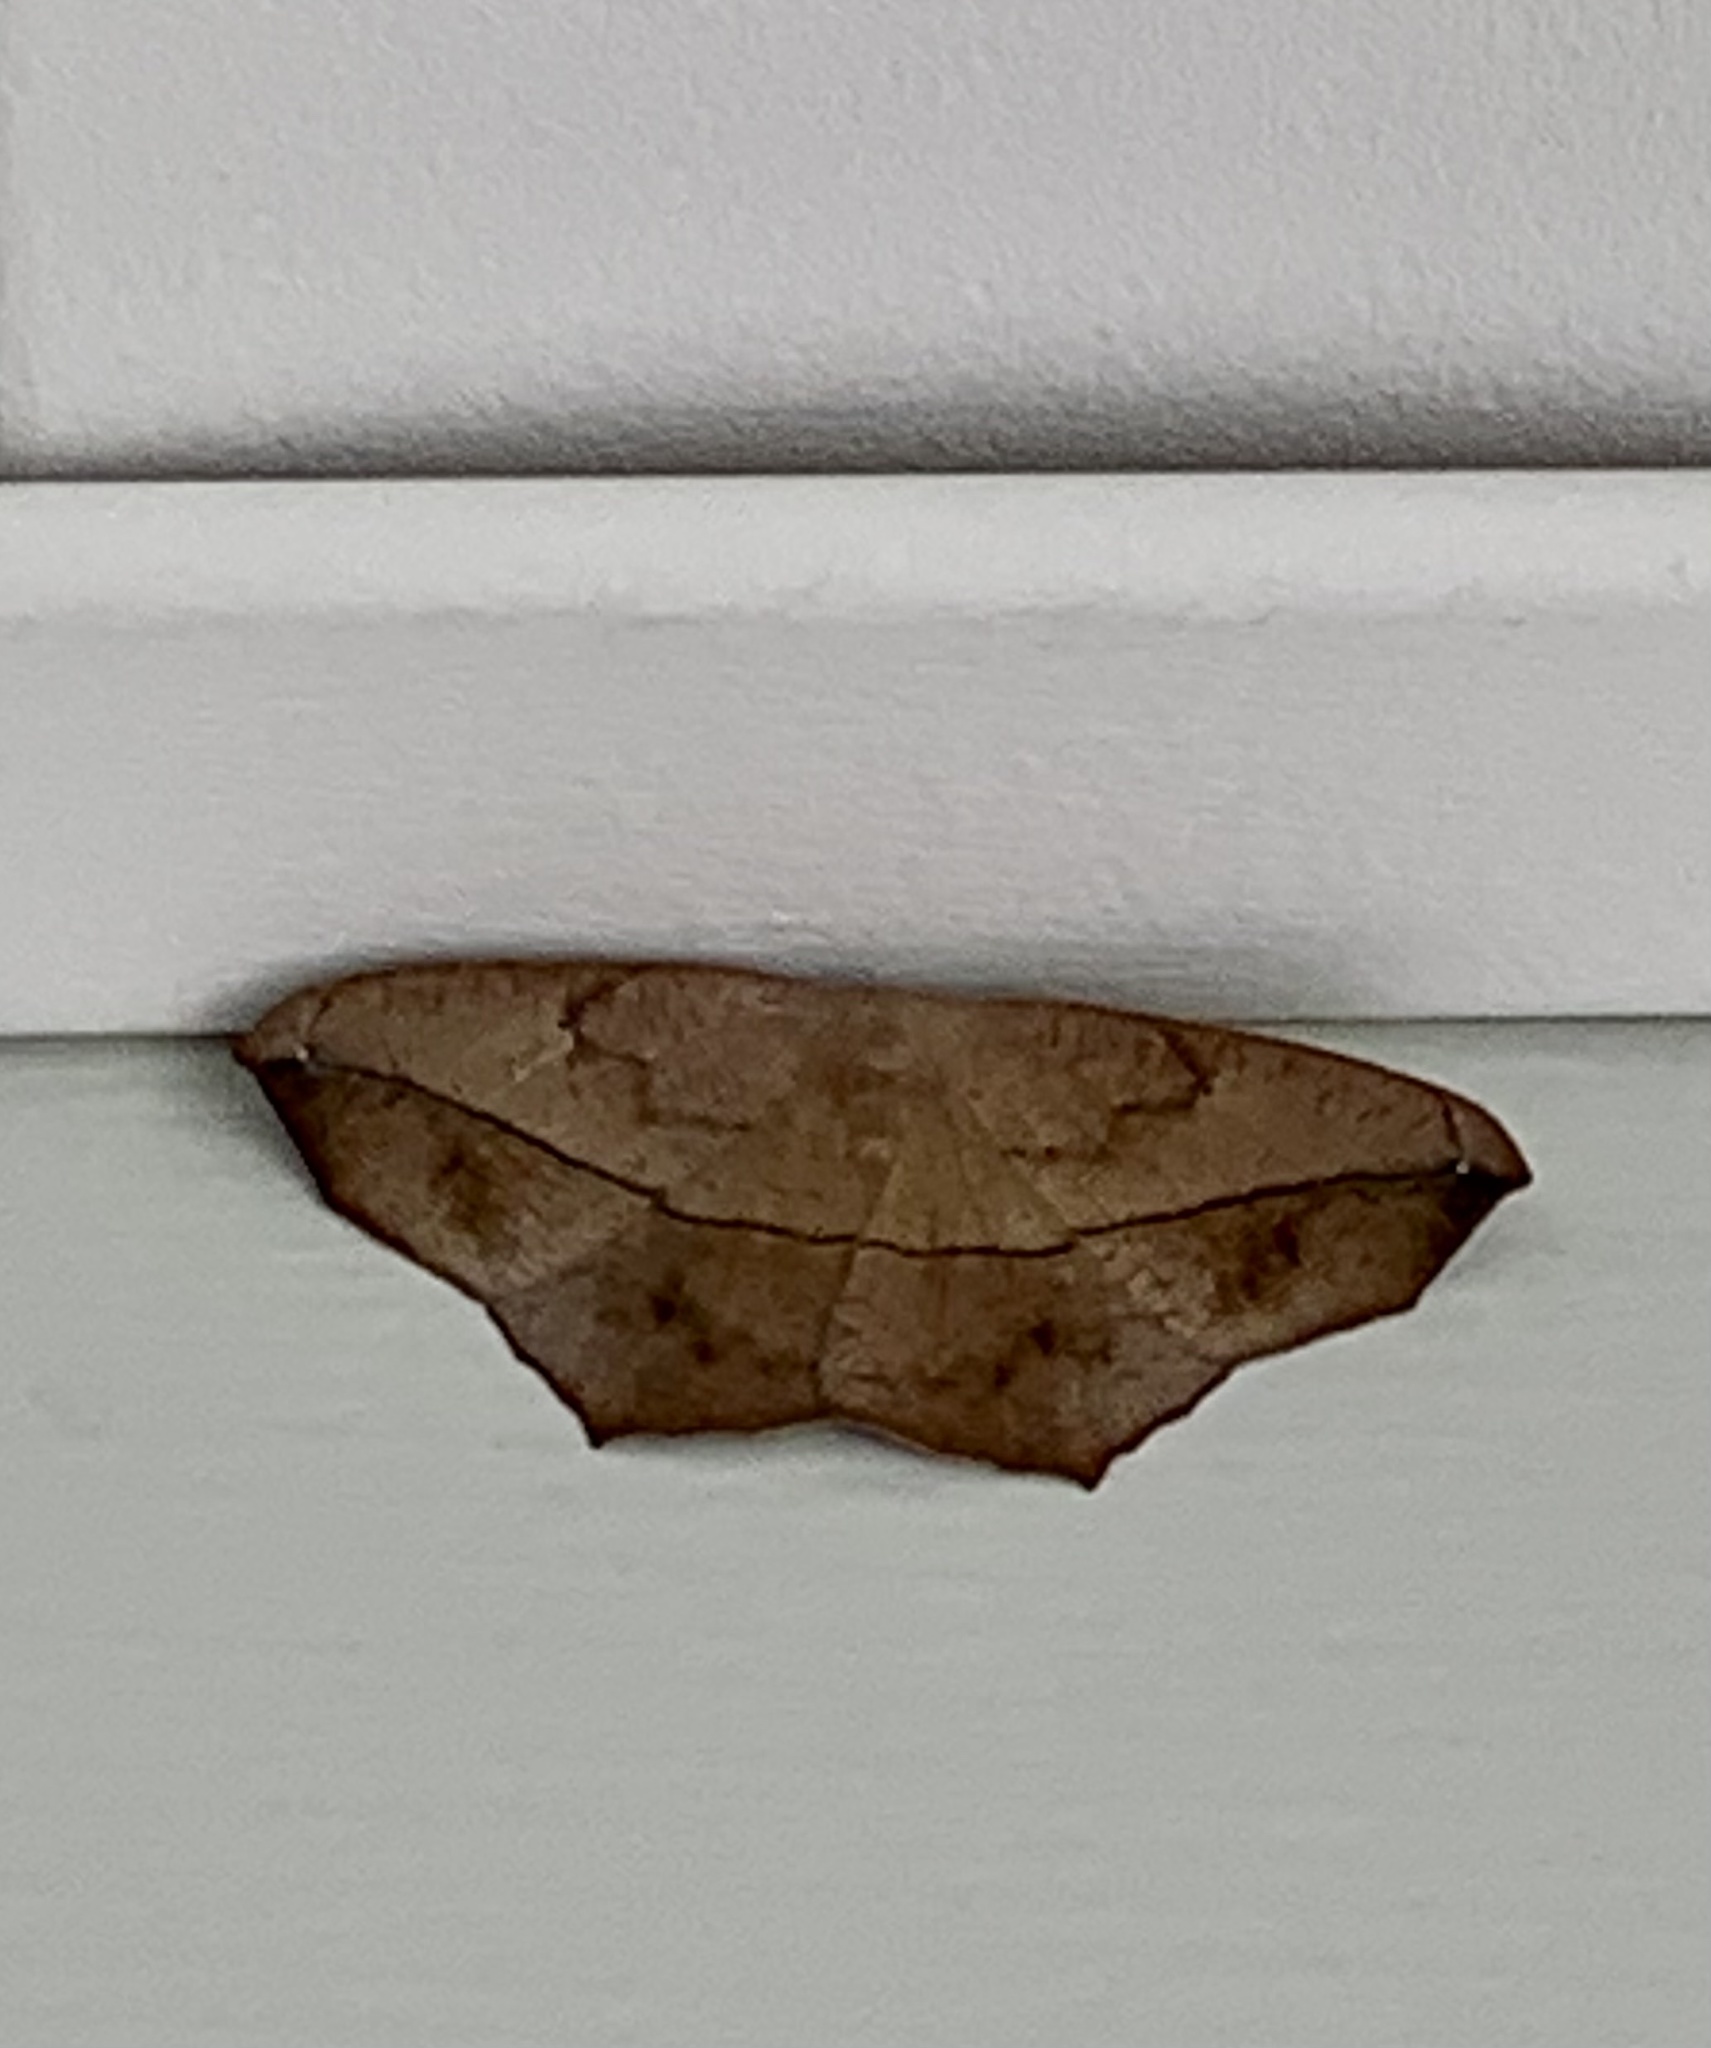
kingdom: Animalia
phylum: Arthropoda
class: Insecta
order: Lepidoptera
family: Geometridae
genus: Prochoerodes
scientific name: Prochoerodes lineola
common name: Large maple spanworm
